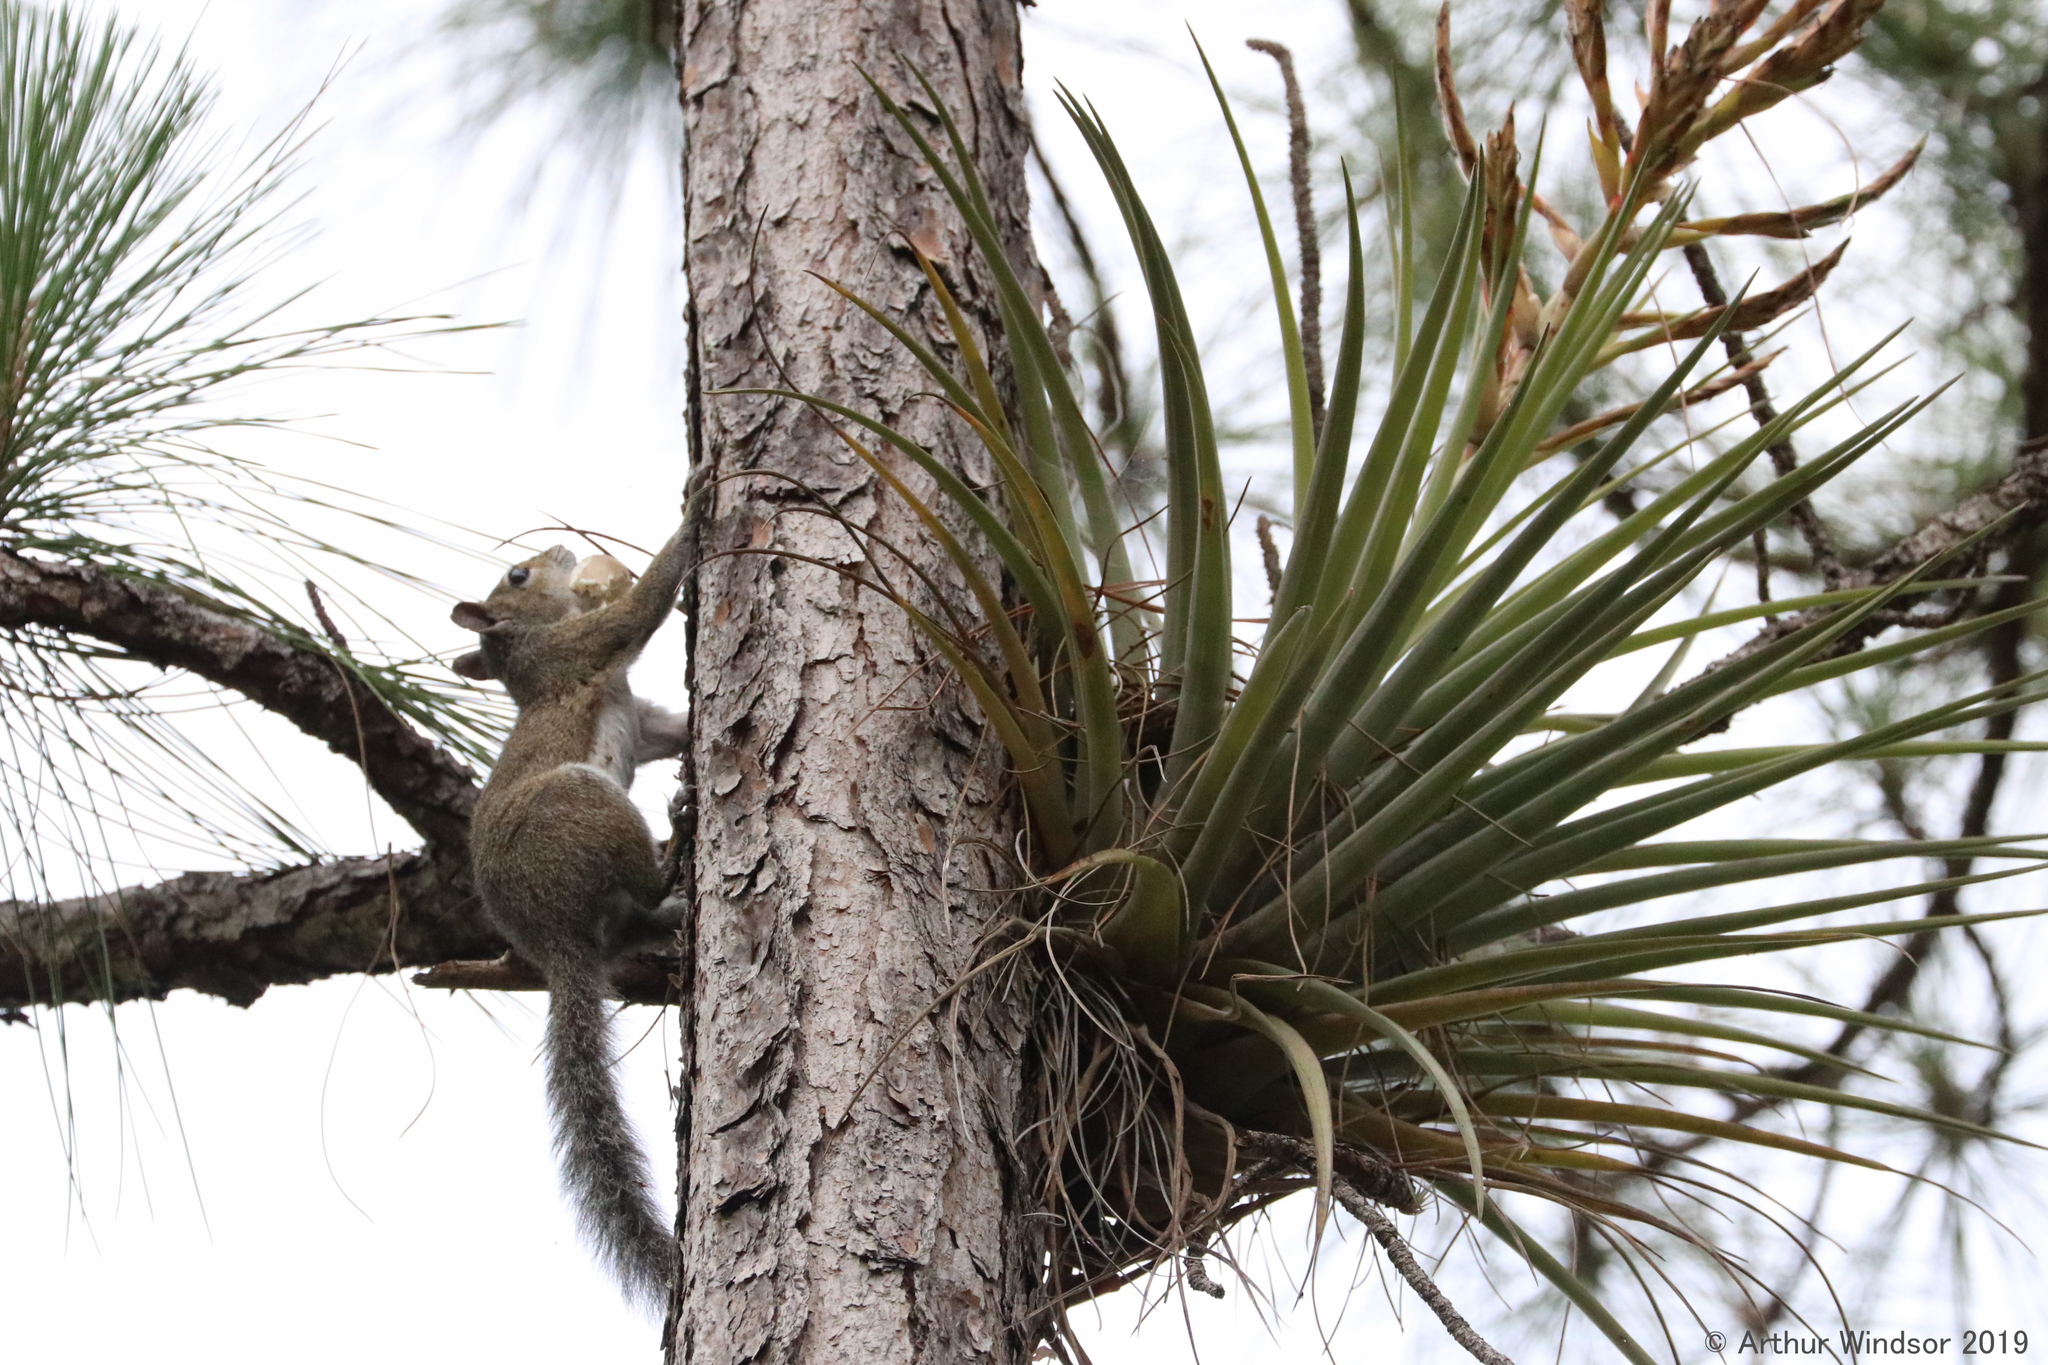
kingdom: Animalia
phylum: Chordata
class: Mammalia
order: Rodentia
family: Sciuridae
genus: Sciurus
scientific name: Sciurus carolinensis
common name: Eastern gray squirrel
